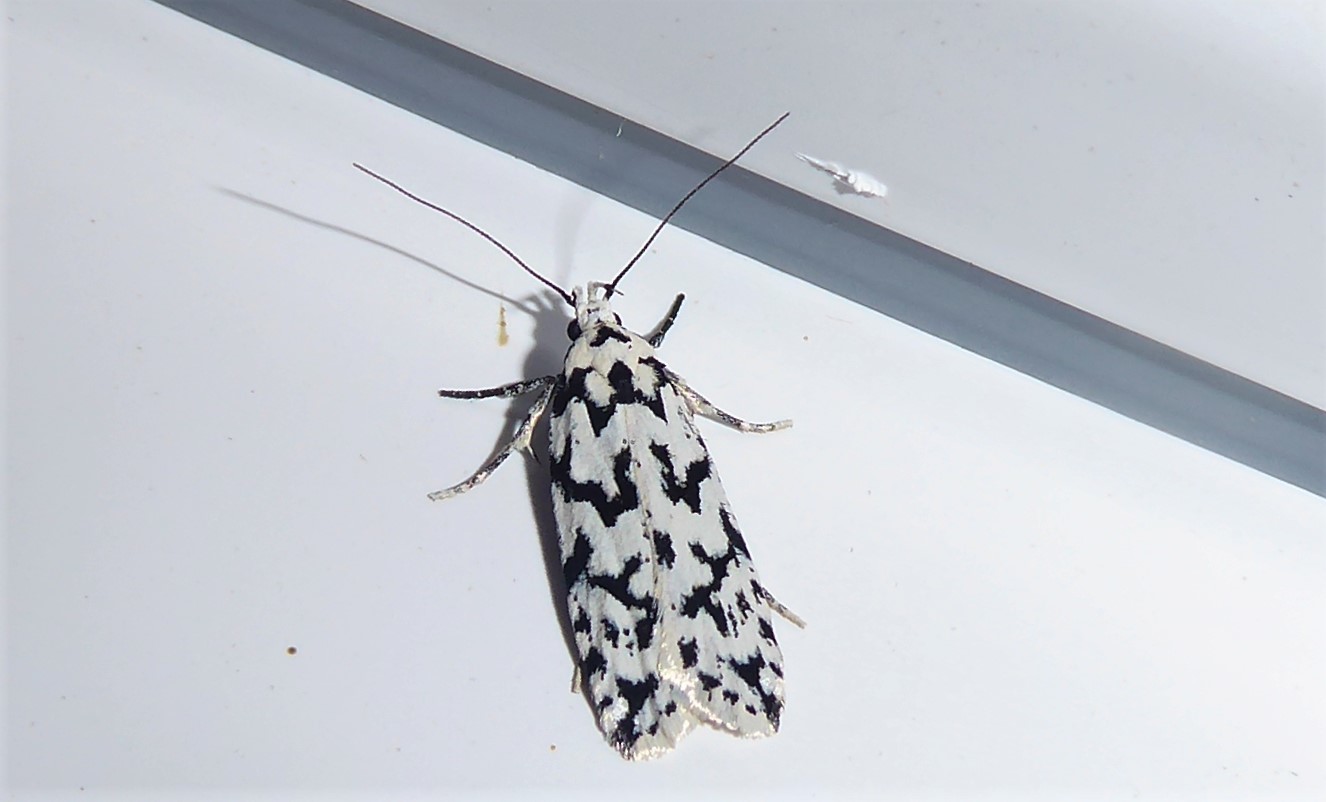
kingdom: Animalia
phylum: Arthropoda
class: Insecta
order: Lepidoptera
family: Oecophoridae
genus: Izatha
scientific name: Izatha katadiktya
